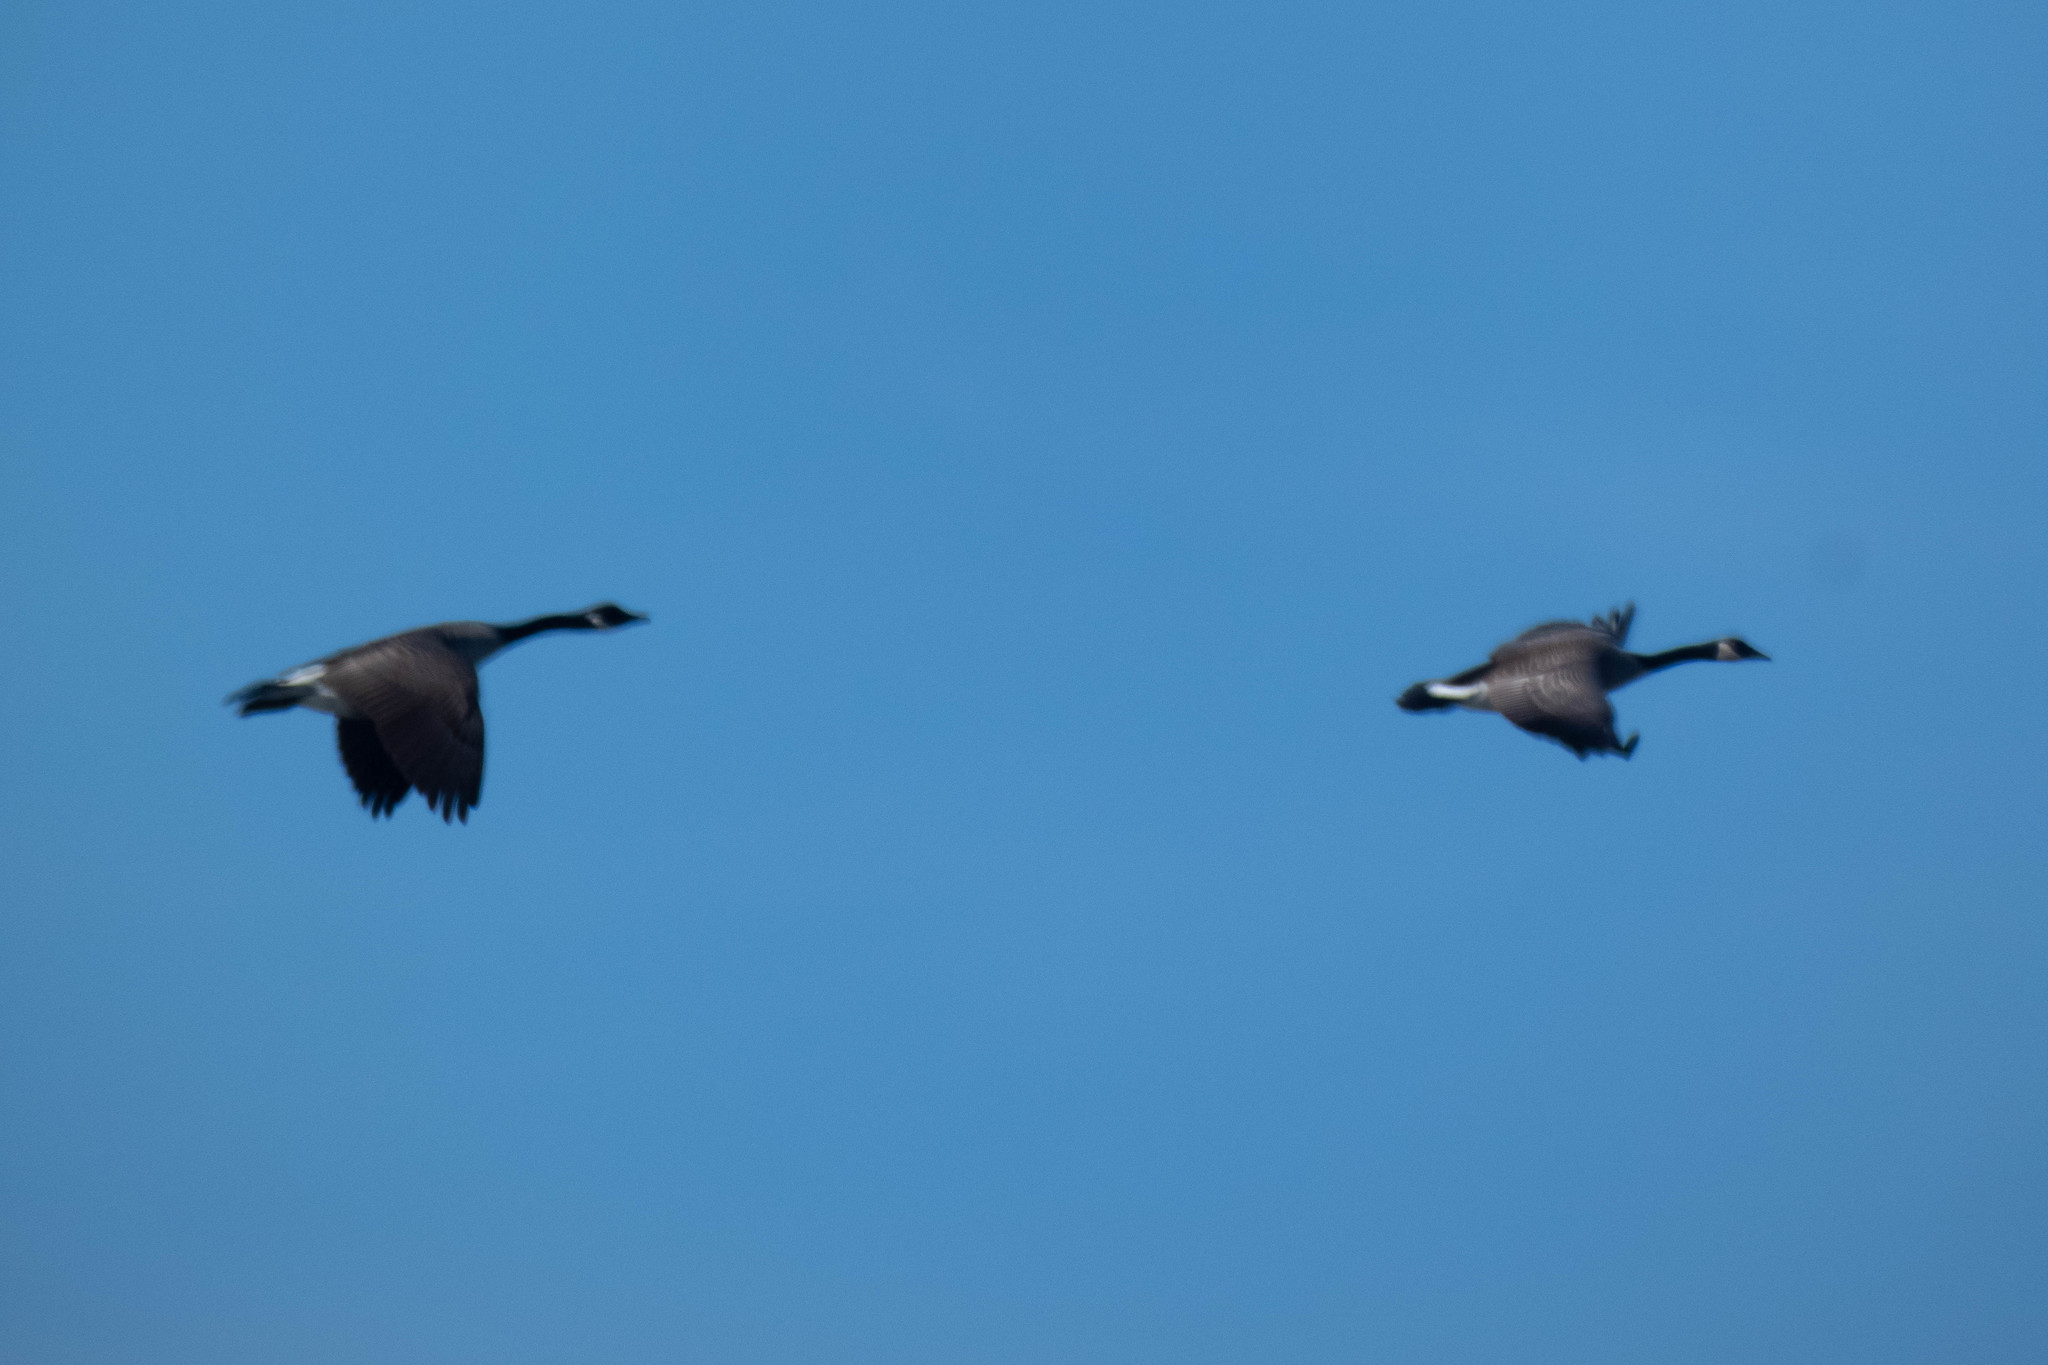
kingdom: Animalia
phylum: Chordata
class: Aves
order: Anseriformes
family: Anatidae
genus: Branta
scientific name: Branta canadensis
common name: Canada goose
